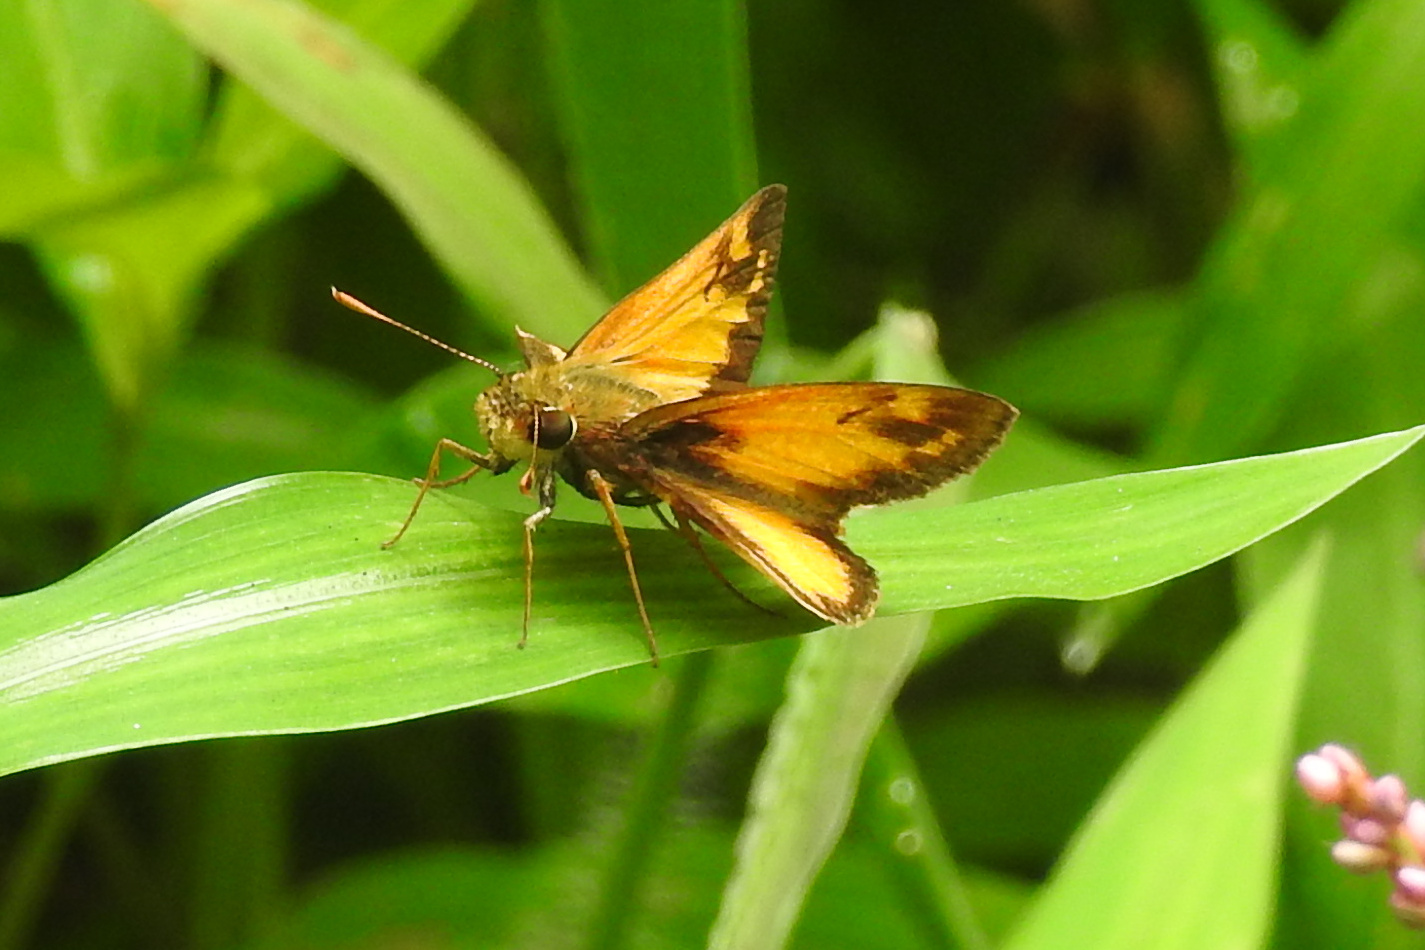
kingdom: Animalia
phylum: Arthropoda
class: Insecta
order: Lepidoptera
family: Hesperiidae
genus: Lon
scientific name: Lon zabulon
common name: Zabulon skipper
